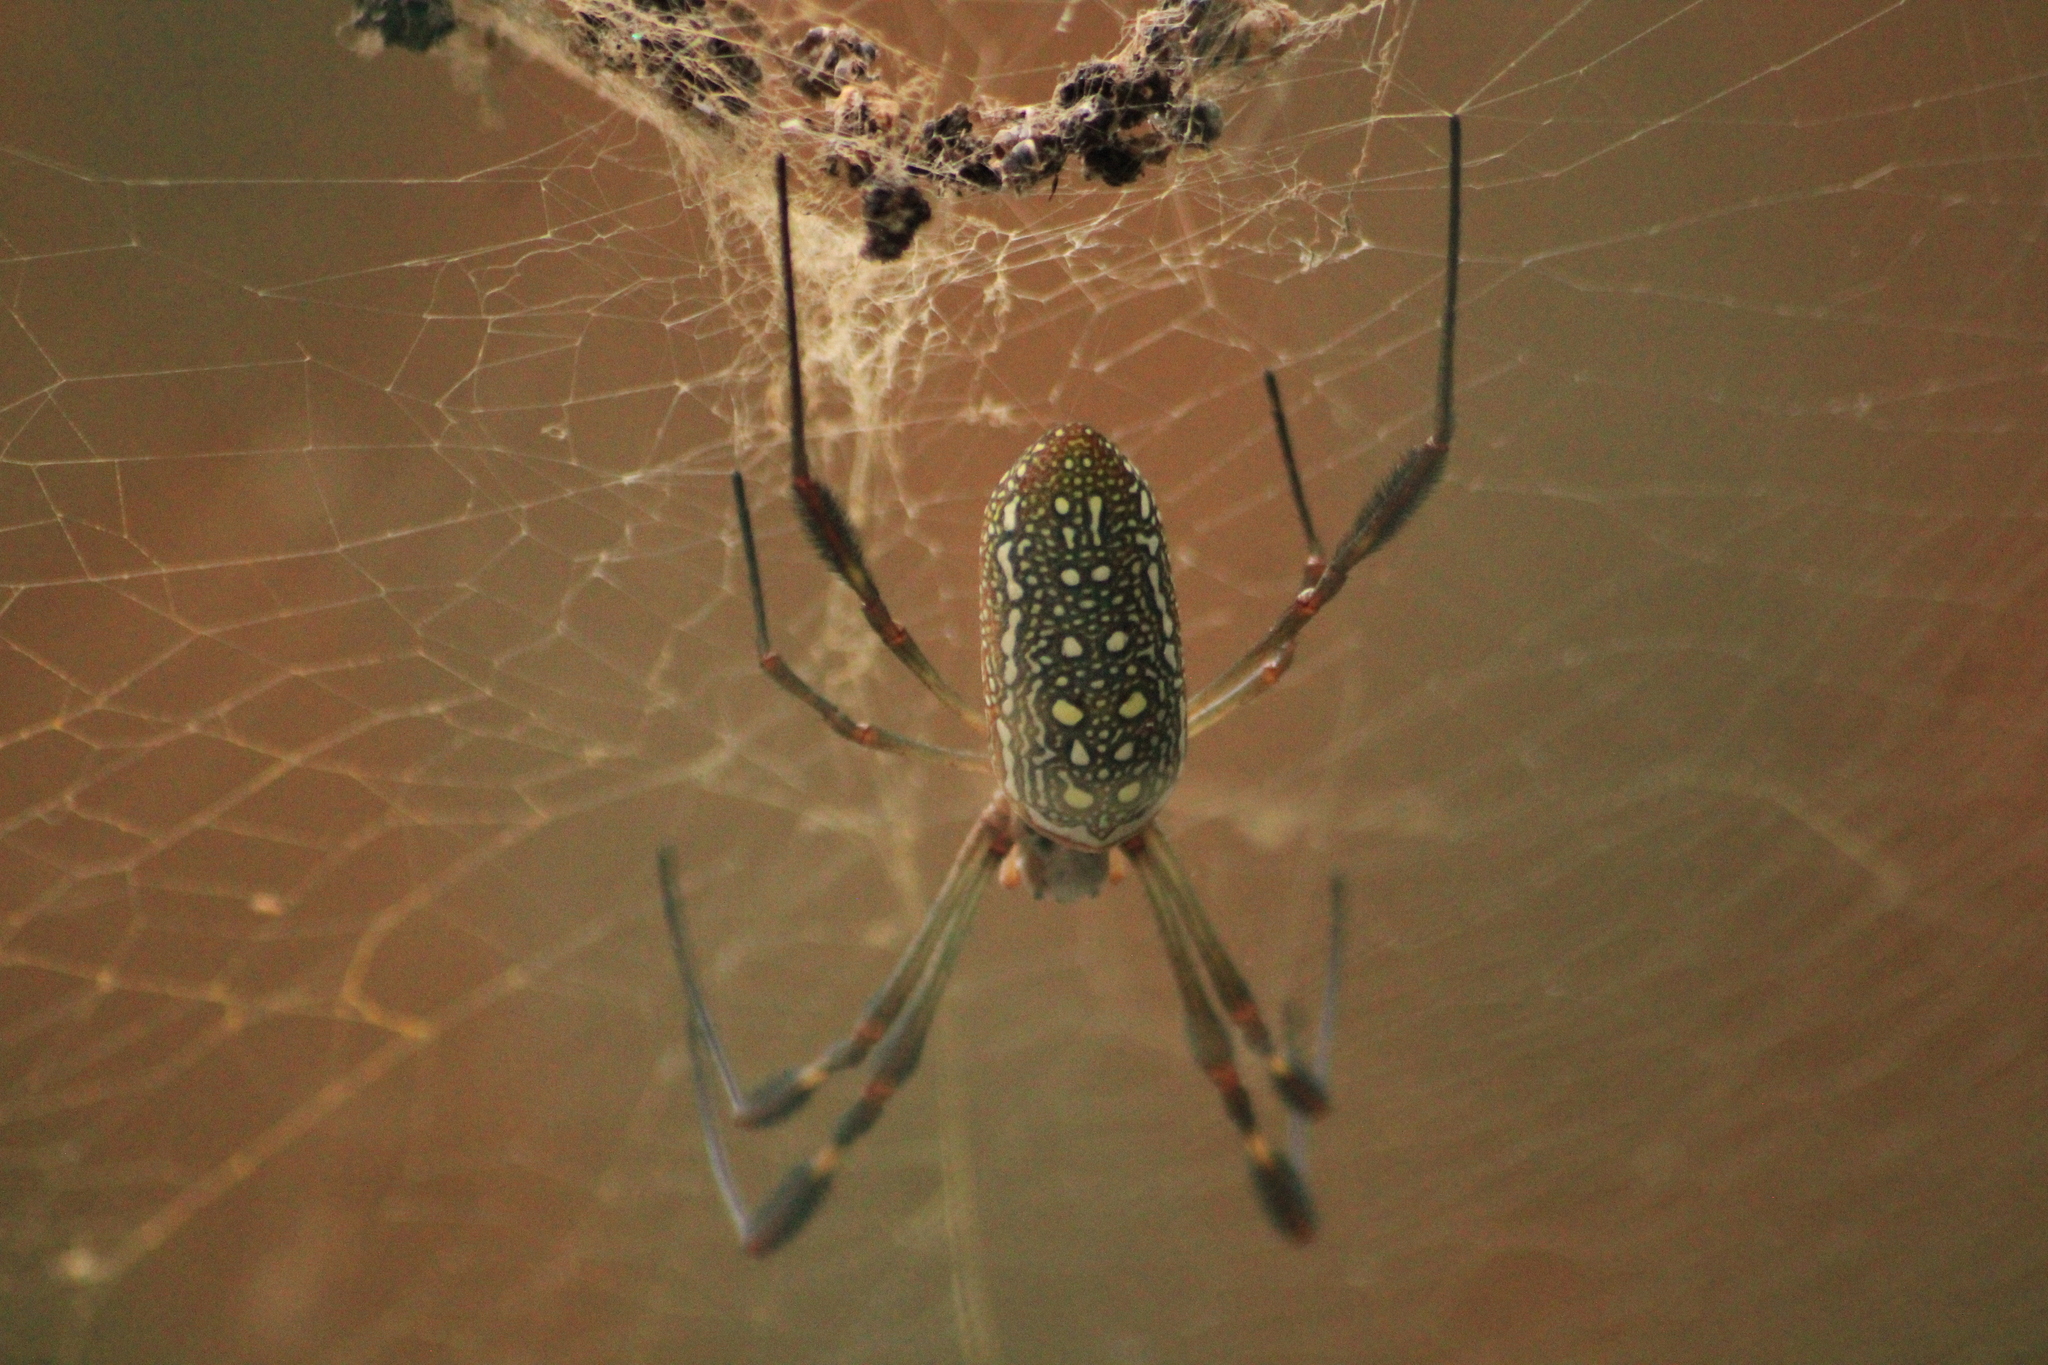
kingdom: Animalia
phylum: Arthropoda
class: Arachnida
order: Araneae
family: Araneidae
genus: Trichonephila
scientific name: Trichonephila clavipes
